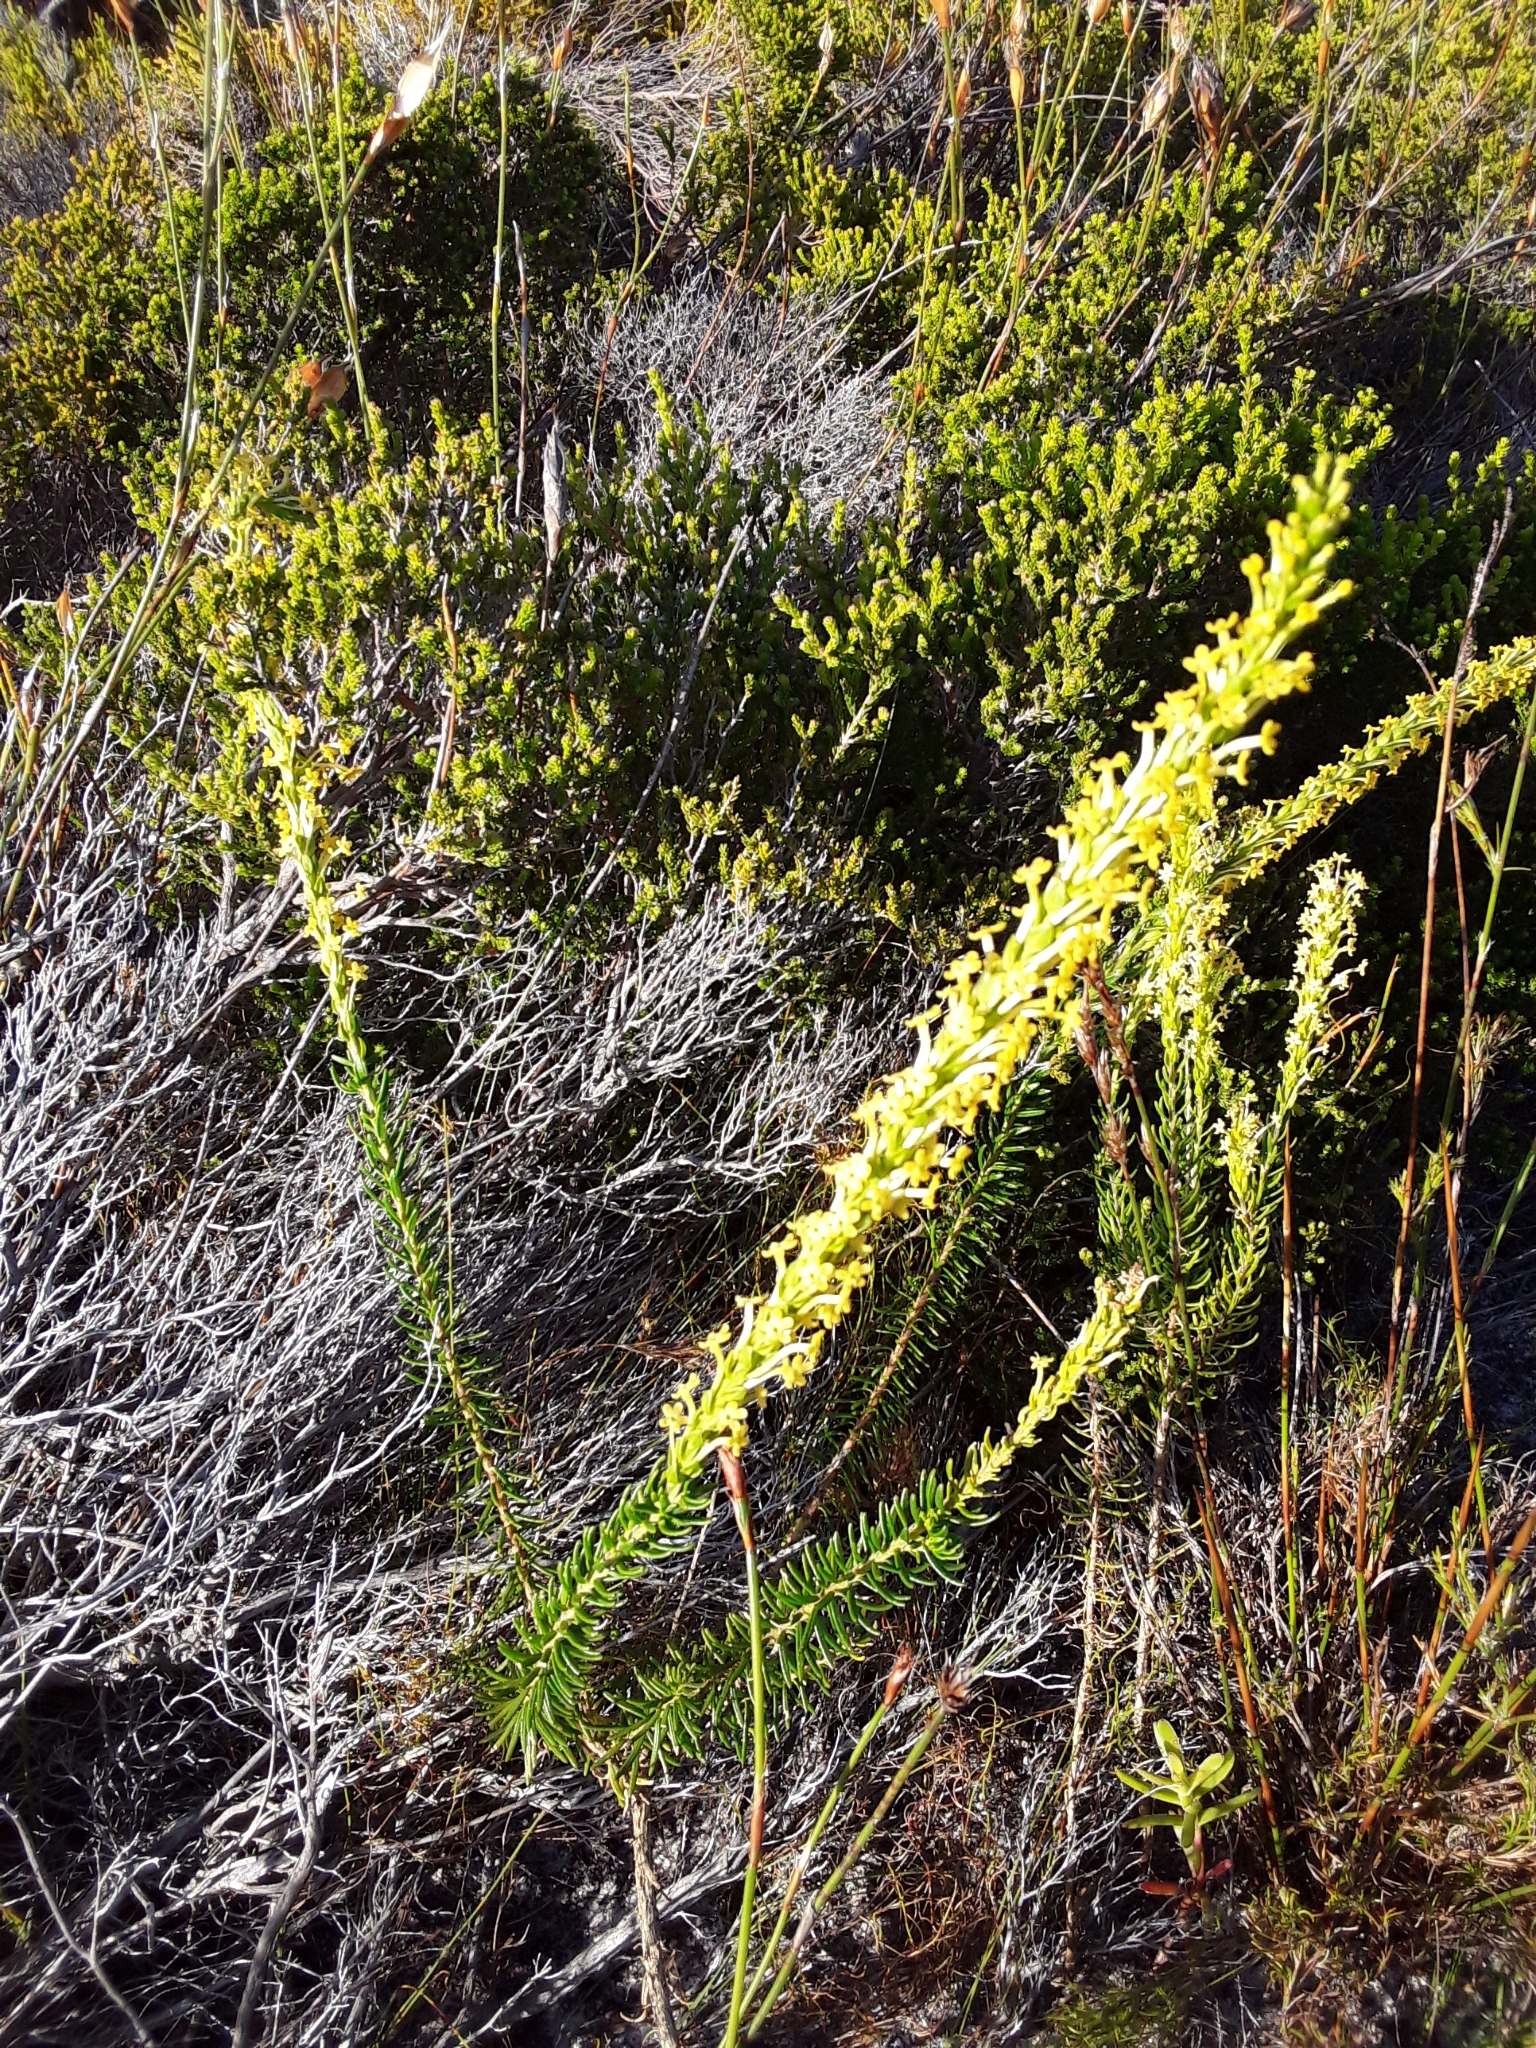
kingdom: Plantae
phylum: Tracheophyta
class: Magnoliopsida
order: Lamiales
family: Scrophulariaceae
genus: Microdon
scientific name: Microdon dubius
